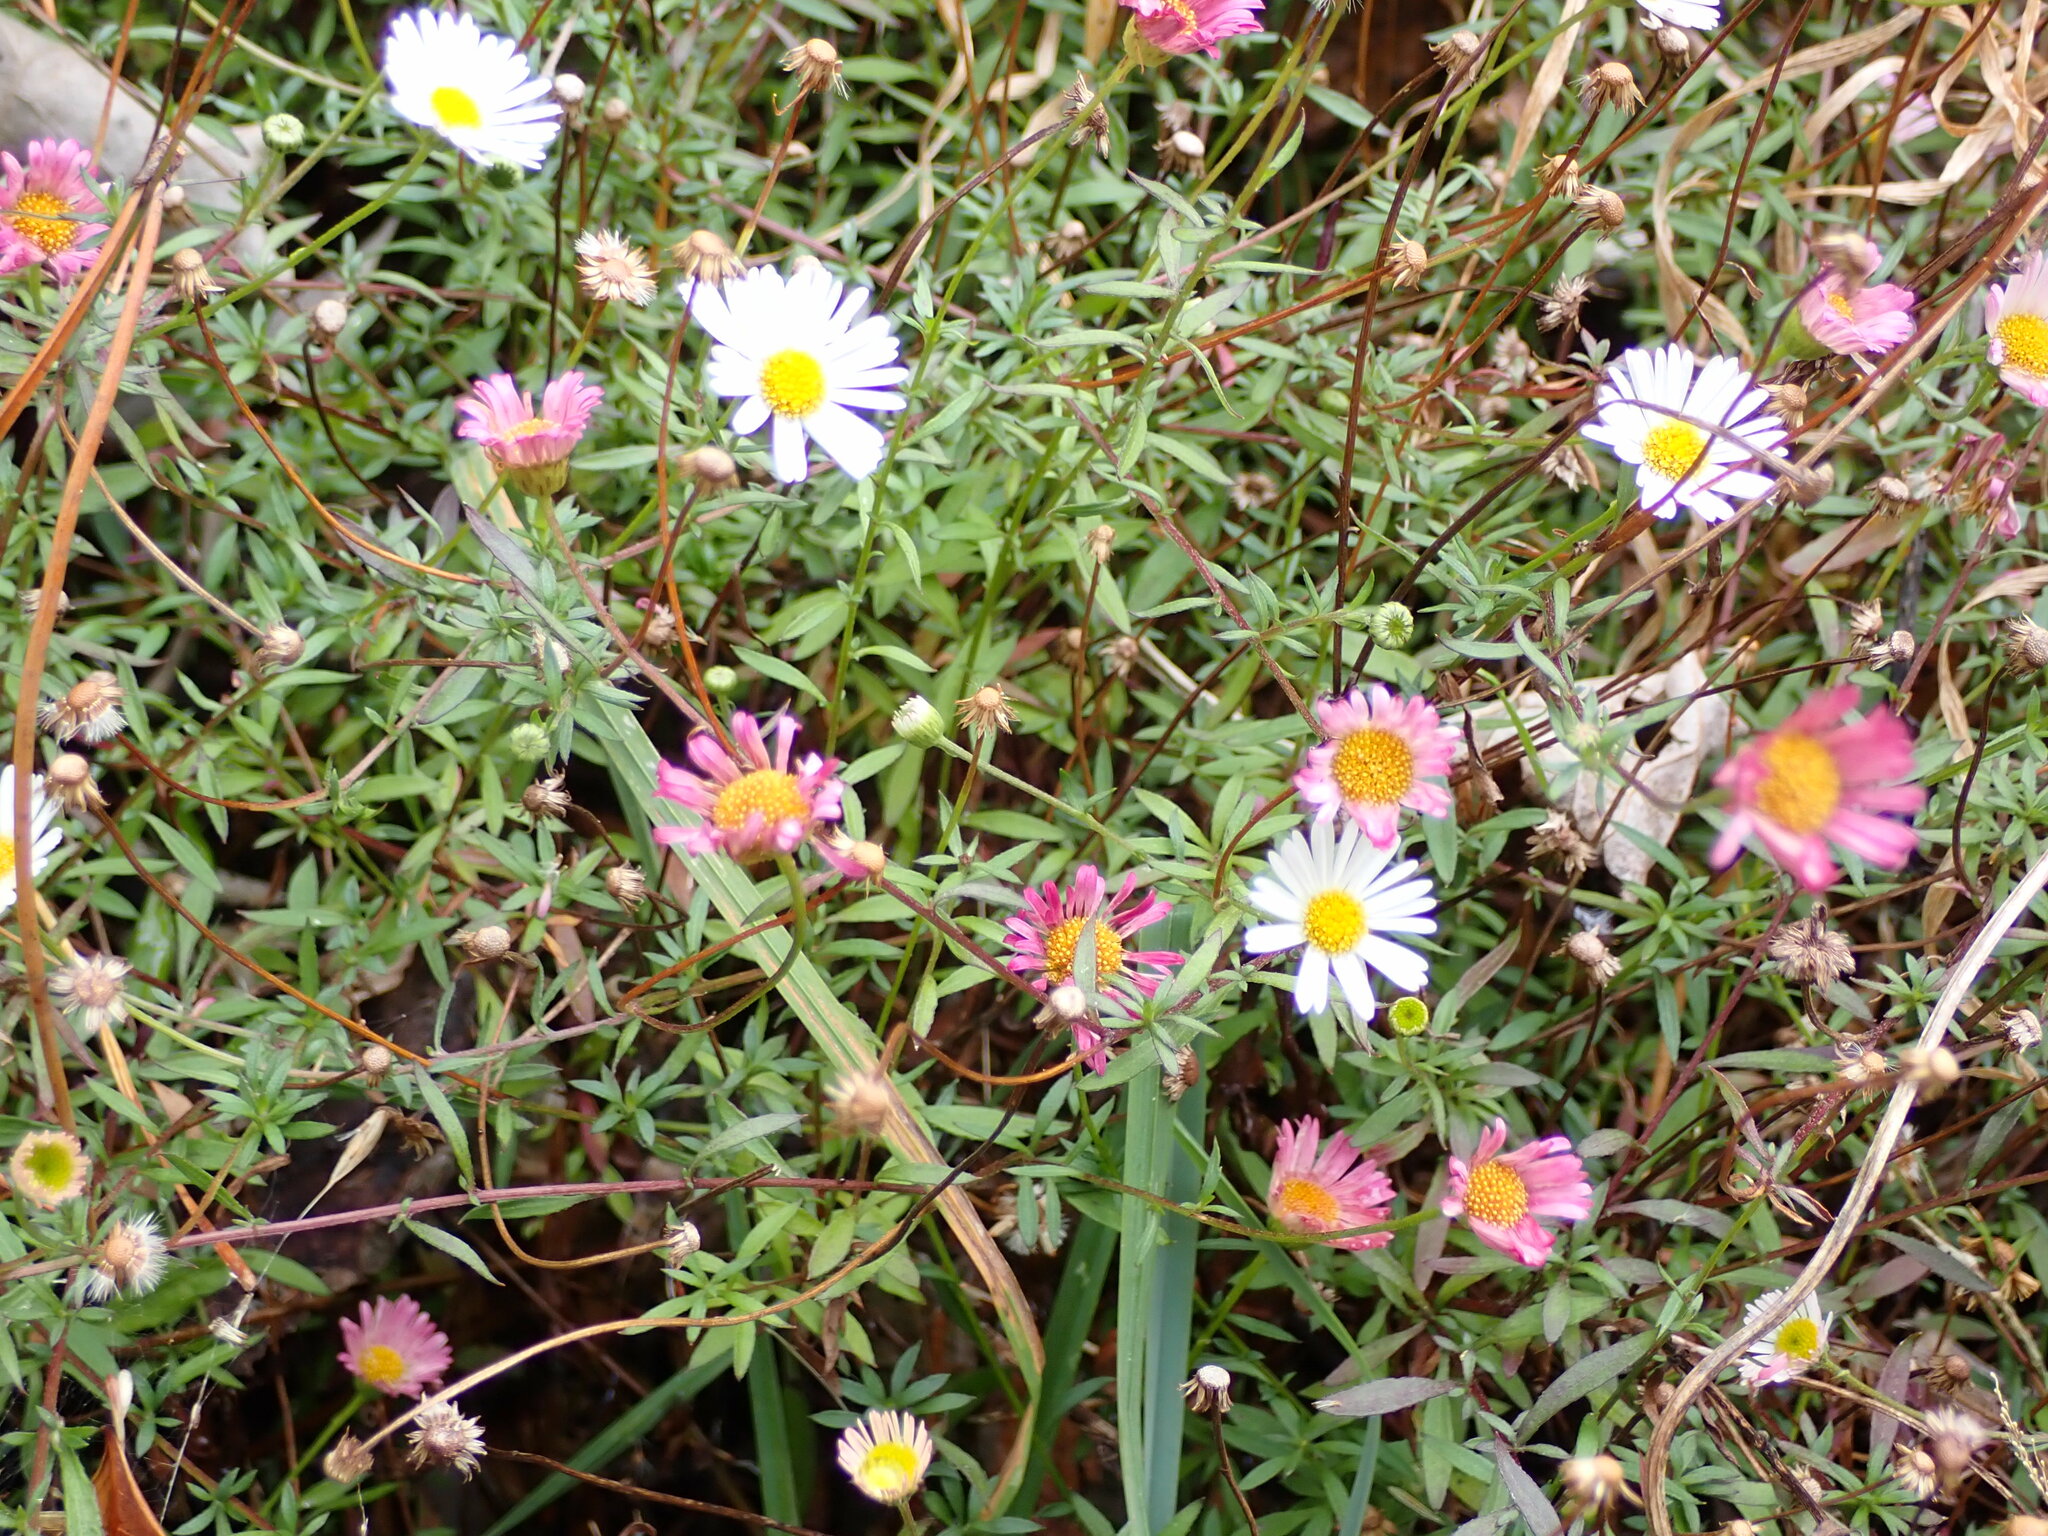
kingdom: Plantae
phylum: Tracheophyta
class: Magnoliopsida
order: Asterales
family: Asteraceae
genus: Erigeron
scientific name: Erigeron karvinskianus
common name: Mexican fleabane
